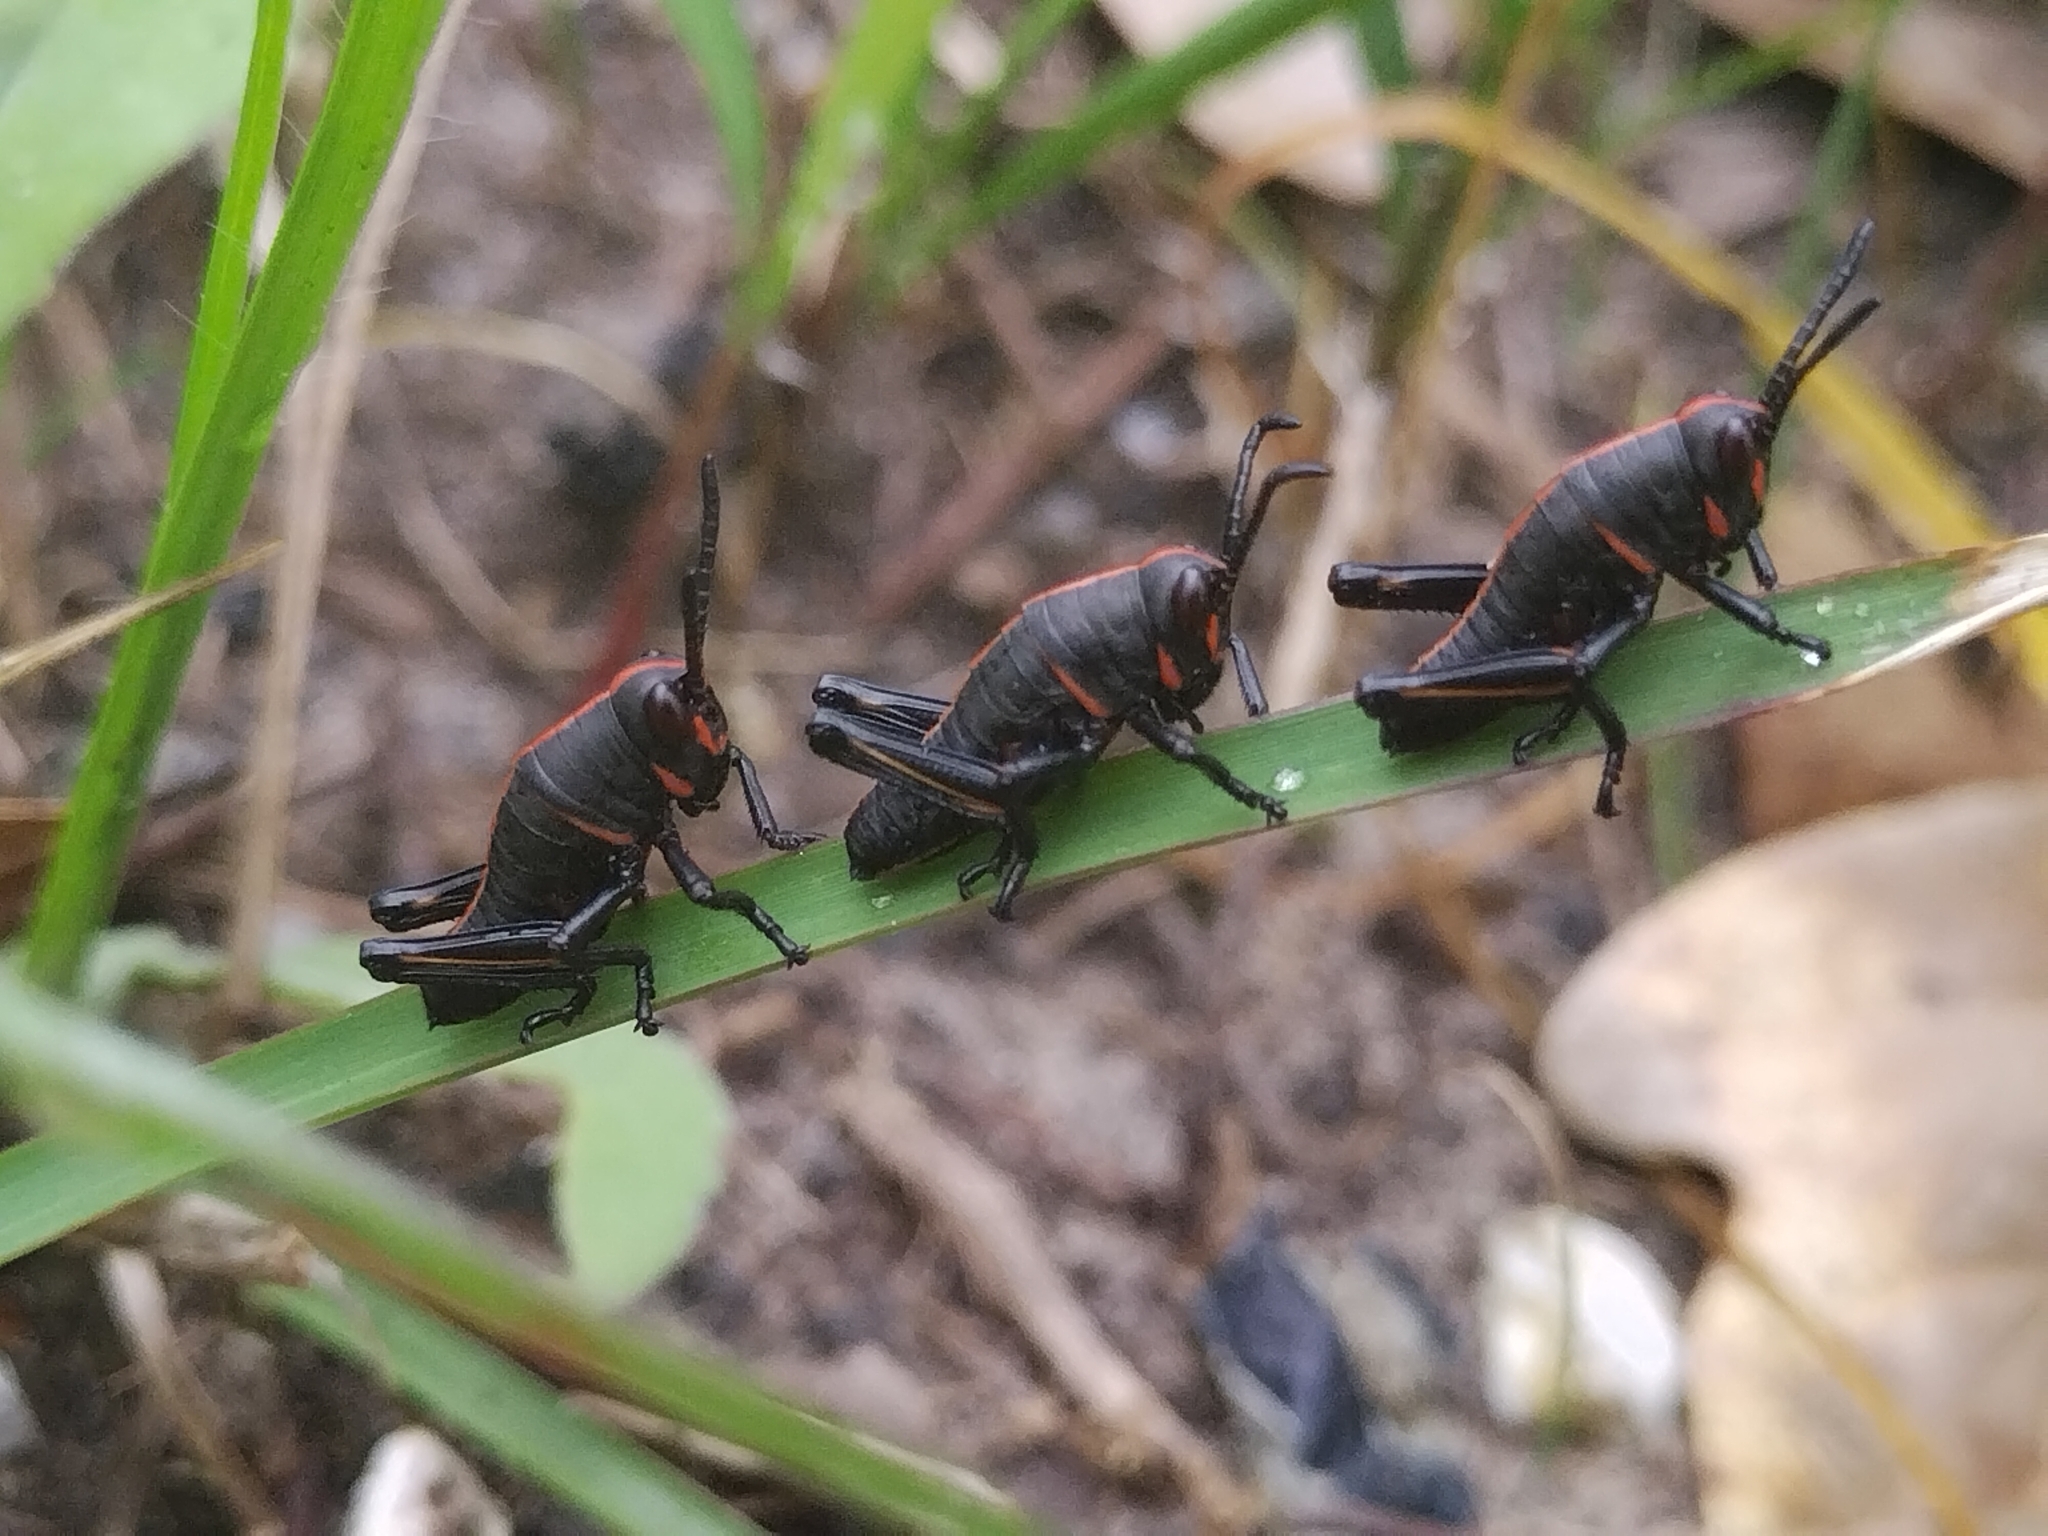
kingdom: Animalia
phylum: Arthropoda
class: Insecta
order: Orthoptera
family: Romaleidae
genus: Romalea
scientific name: Romalea microptera
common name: Eastern lubber grasshopper
